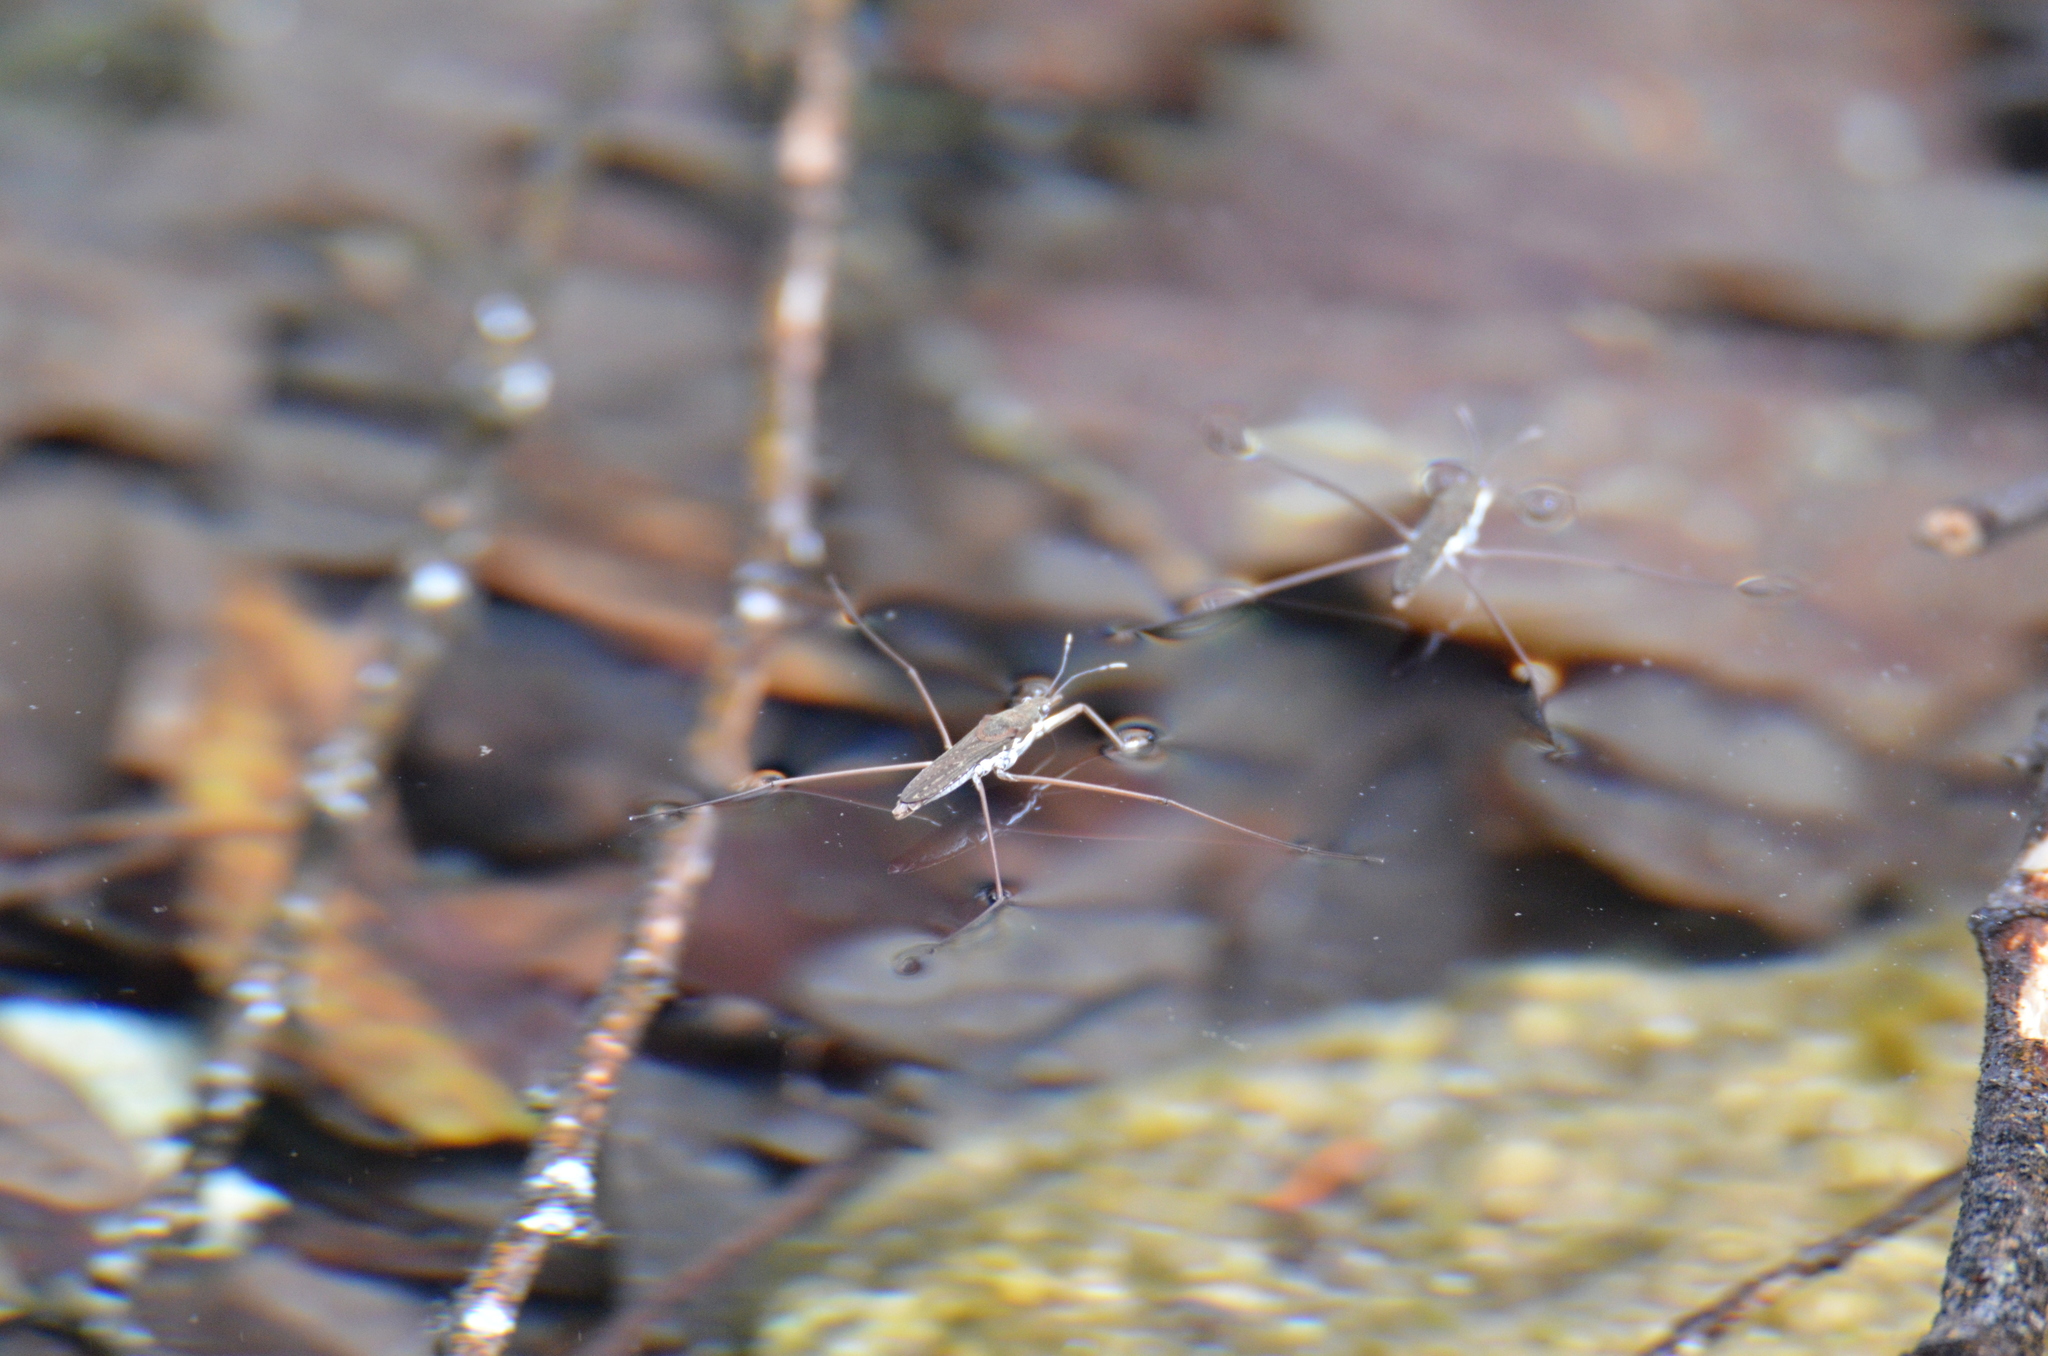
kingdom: Animalia
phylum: Arthropoda
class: Insecta
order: Hemiptera
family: Gerridae
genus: Aquarius
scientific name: Aquarius remigis
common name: Common water strider
